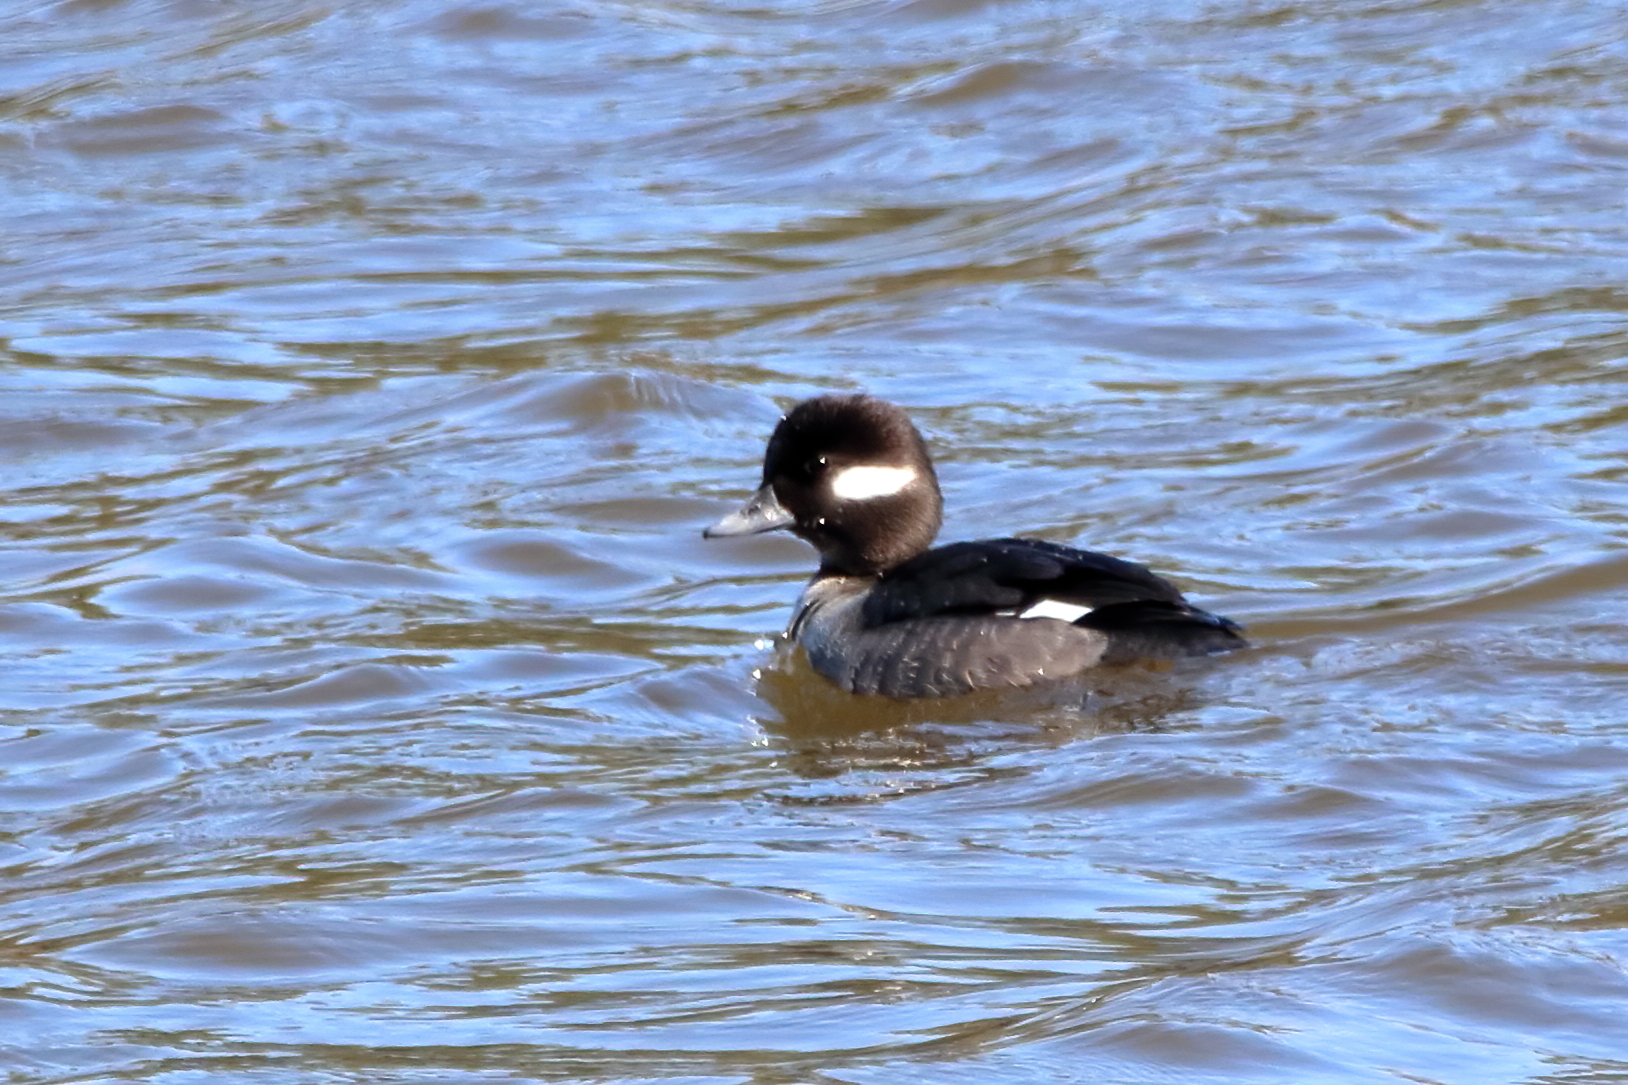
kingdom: Animalia
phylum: Chordata
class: Aves
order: Anseriformes
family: Anatidae
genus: Bucephala
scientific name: Bucephala albeola
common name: Bufflehead
